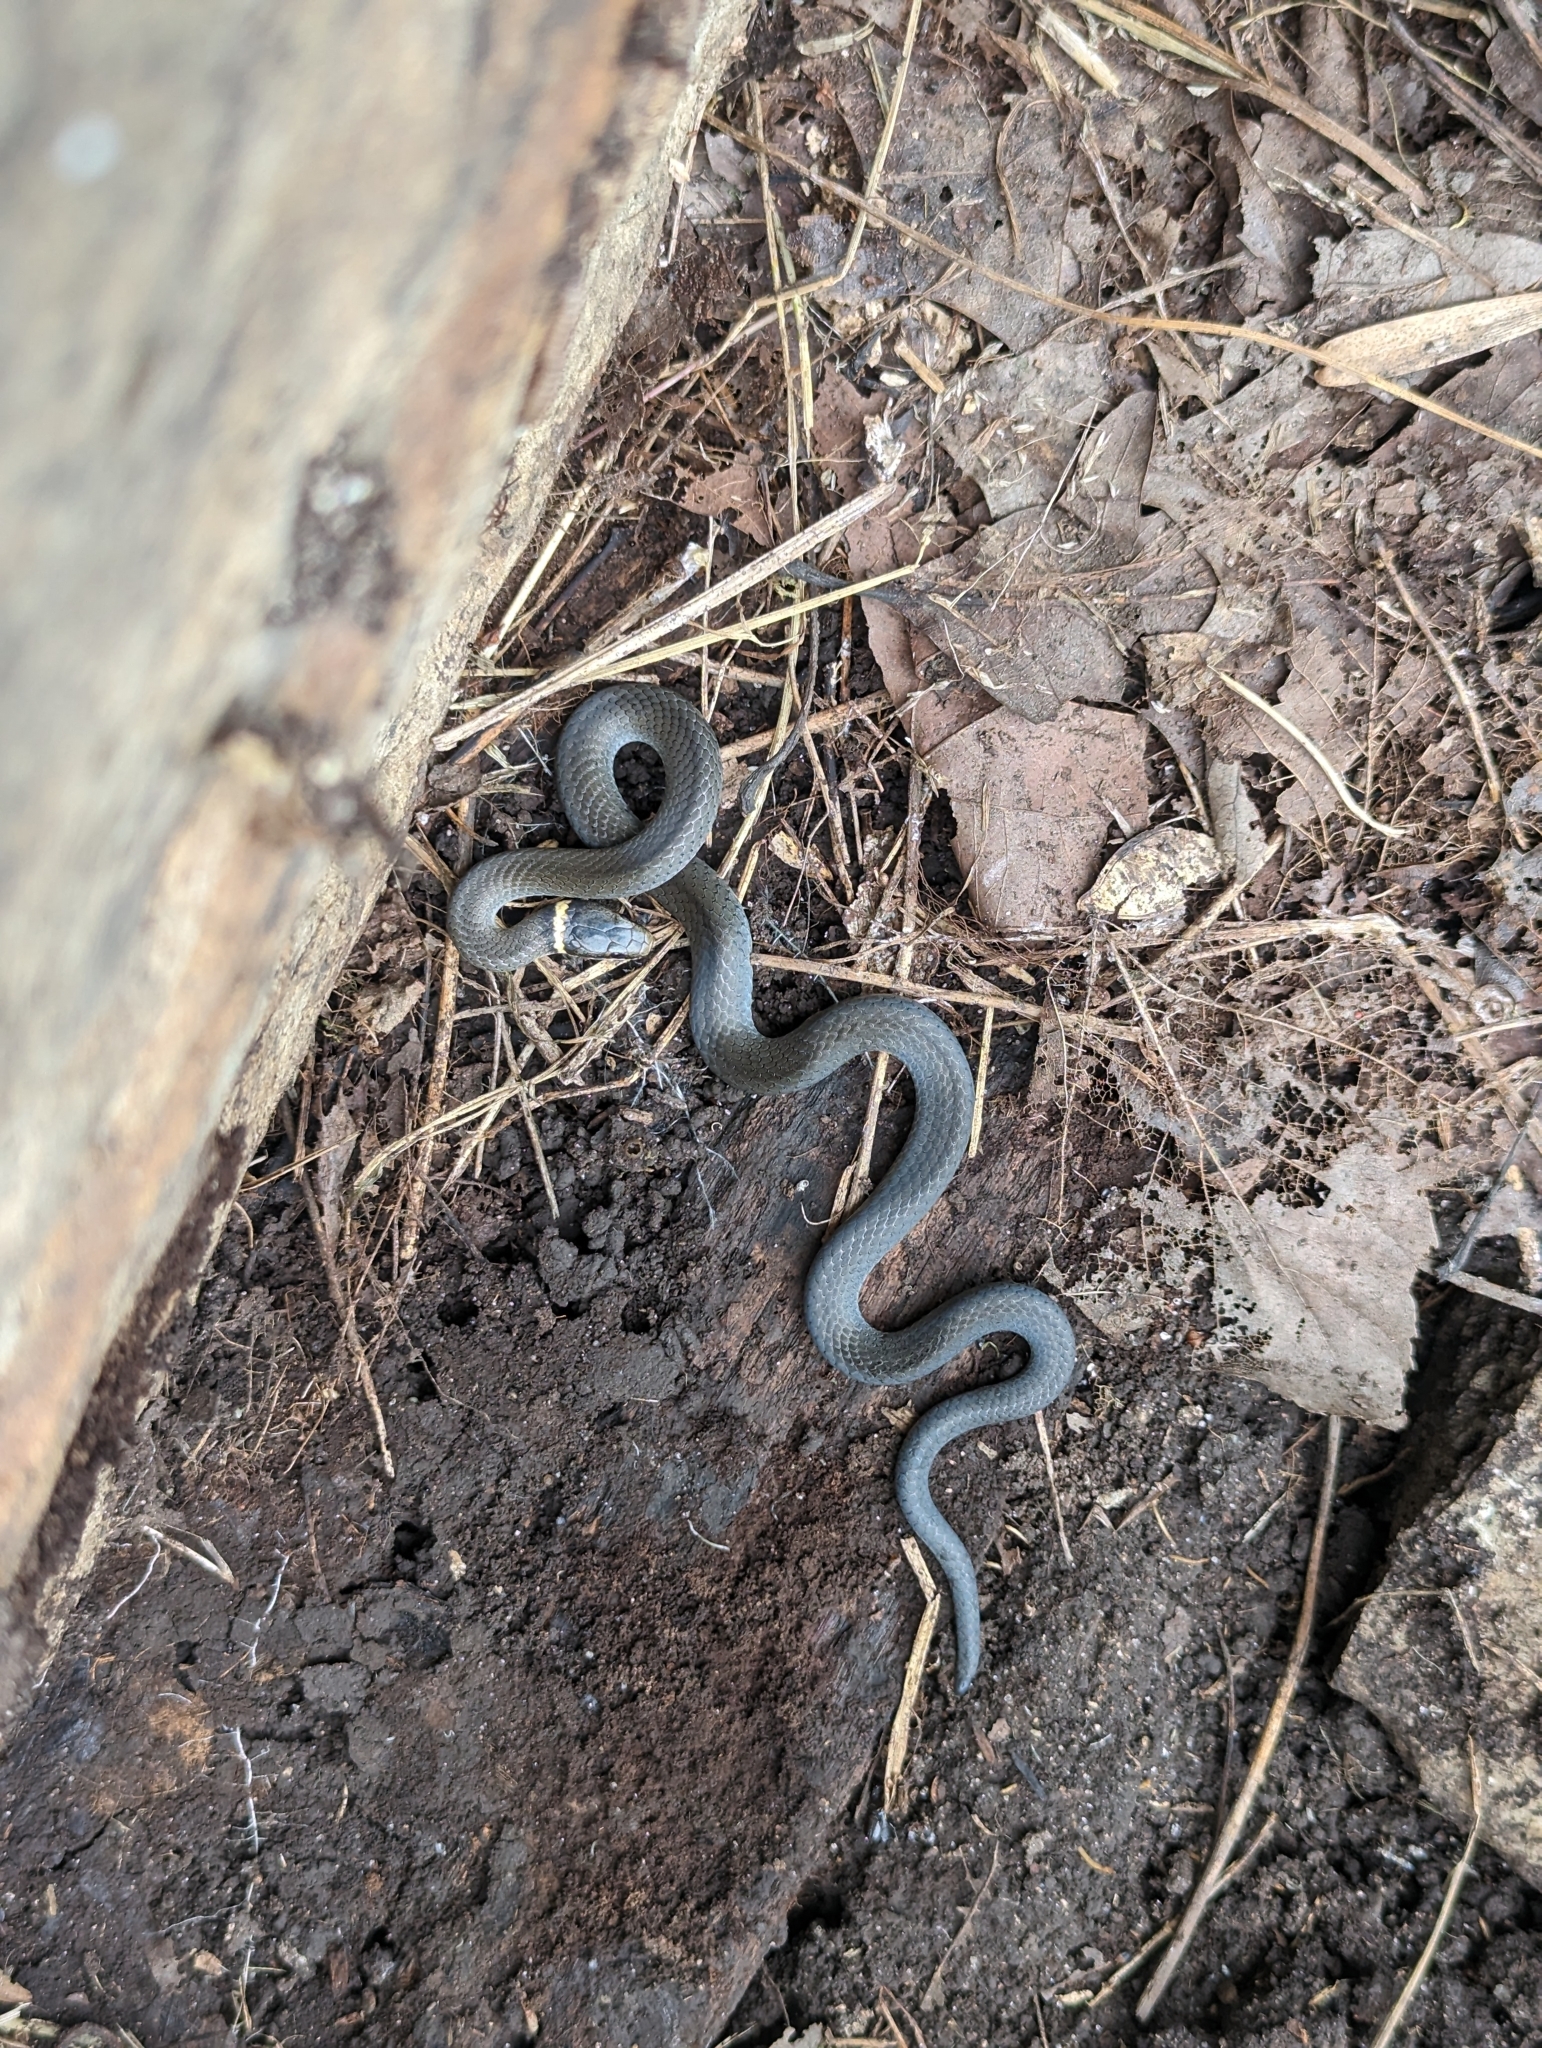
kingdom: Animalia
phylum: Chordata
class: Squamata
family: Colubridae
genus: Diadophis
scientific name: Diadophis punctatus
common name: Ringneck snake
